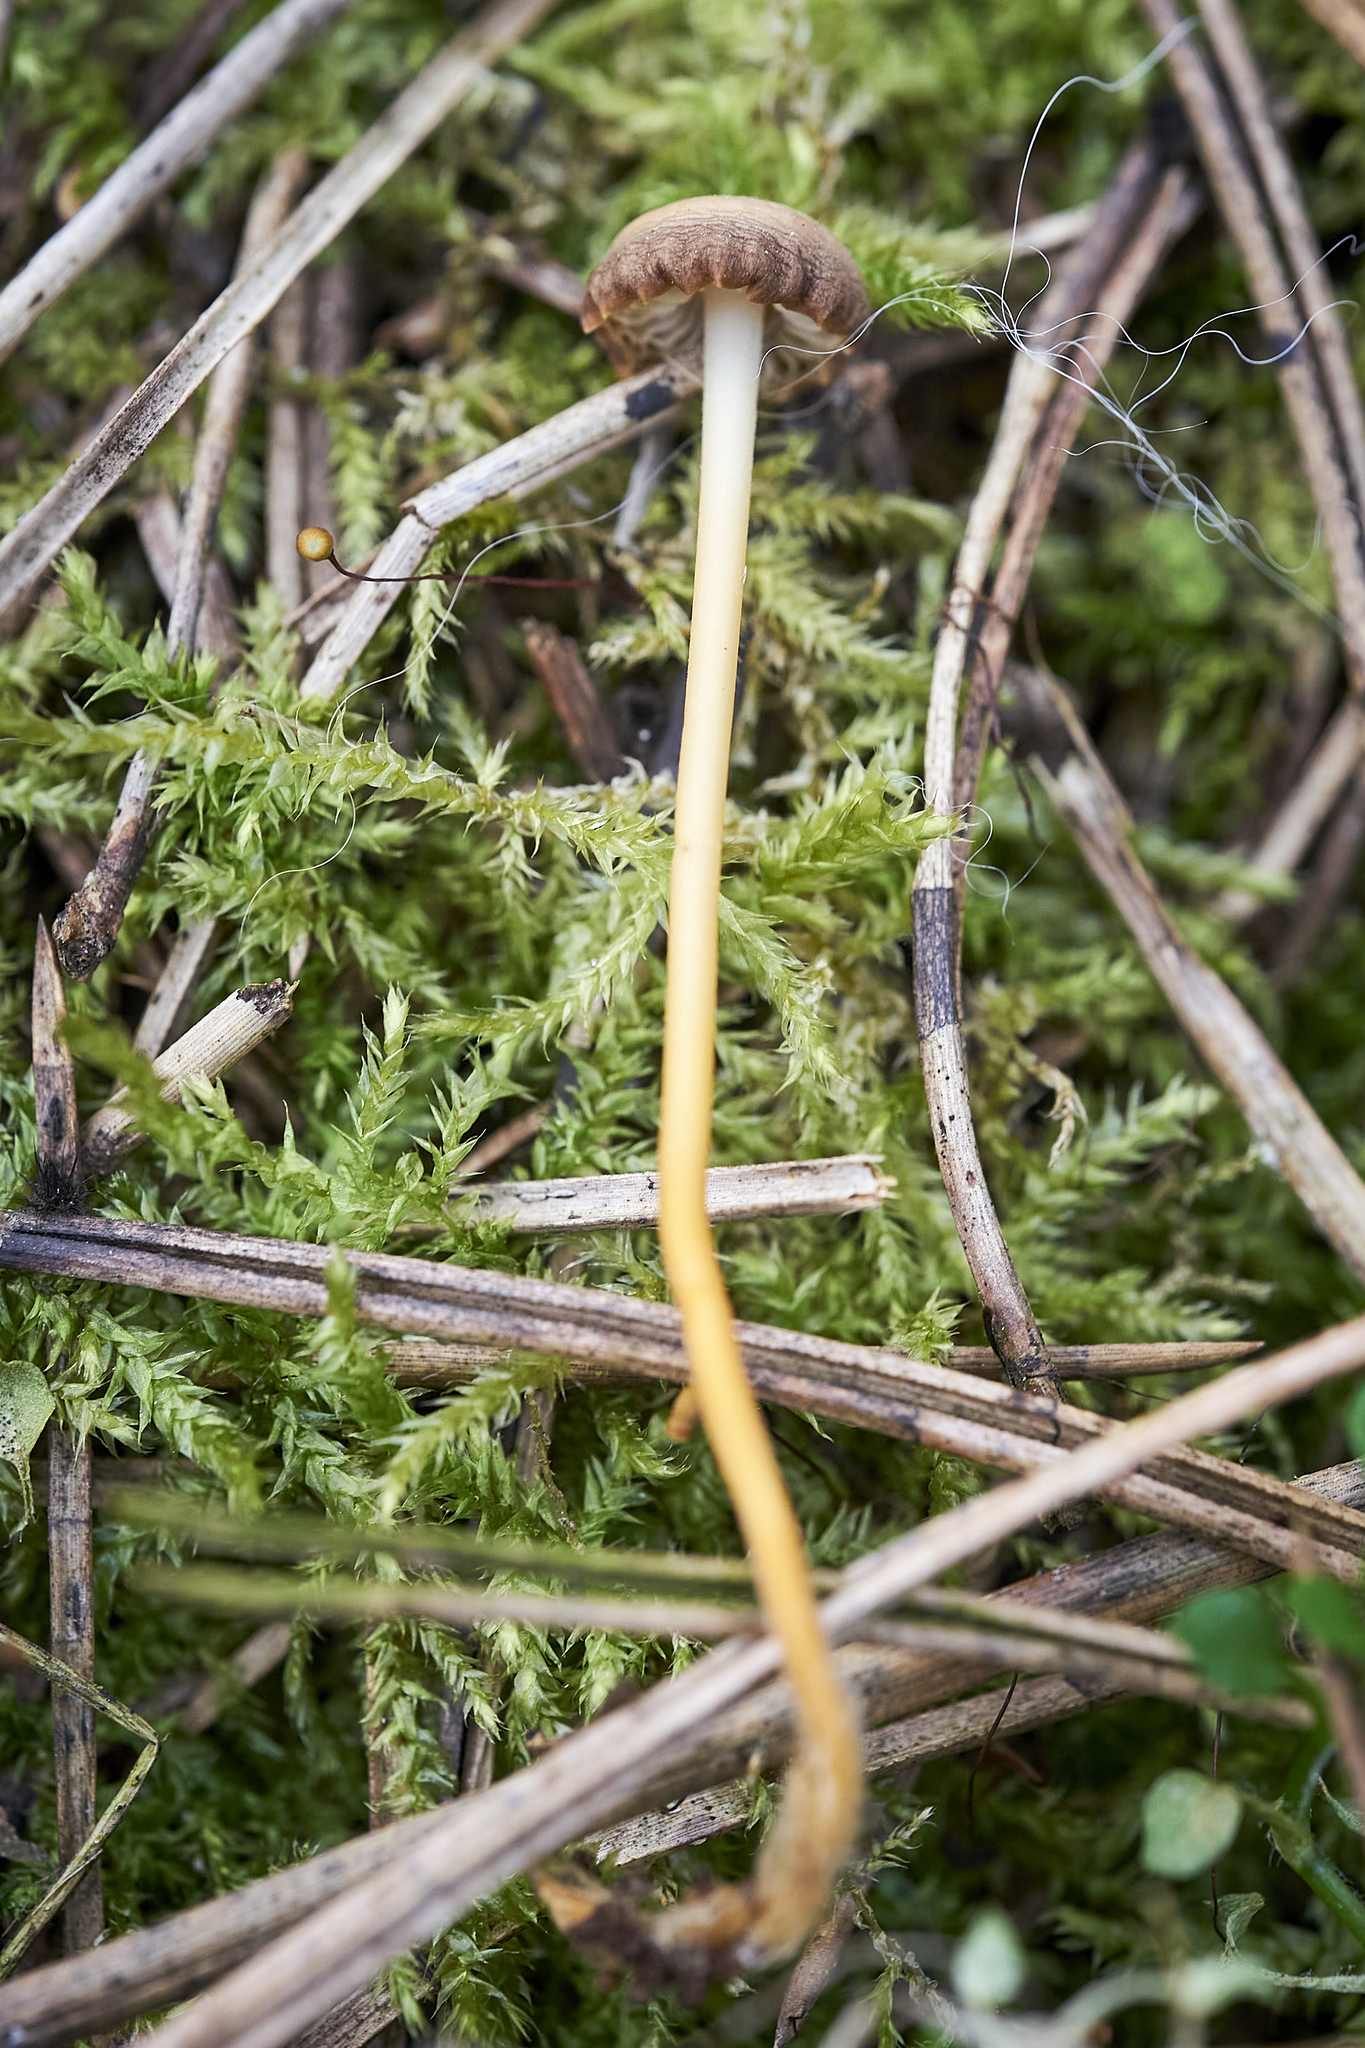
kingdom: Fungi
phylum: Basidiomycota
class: Agaricomycetes
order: Agaricales
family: Physalacriaceae
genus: Strobilurus
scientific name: Strobilurus stephanocystis
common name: Russian conecap
